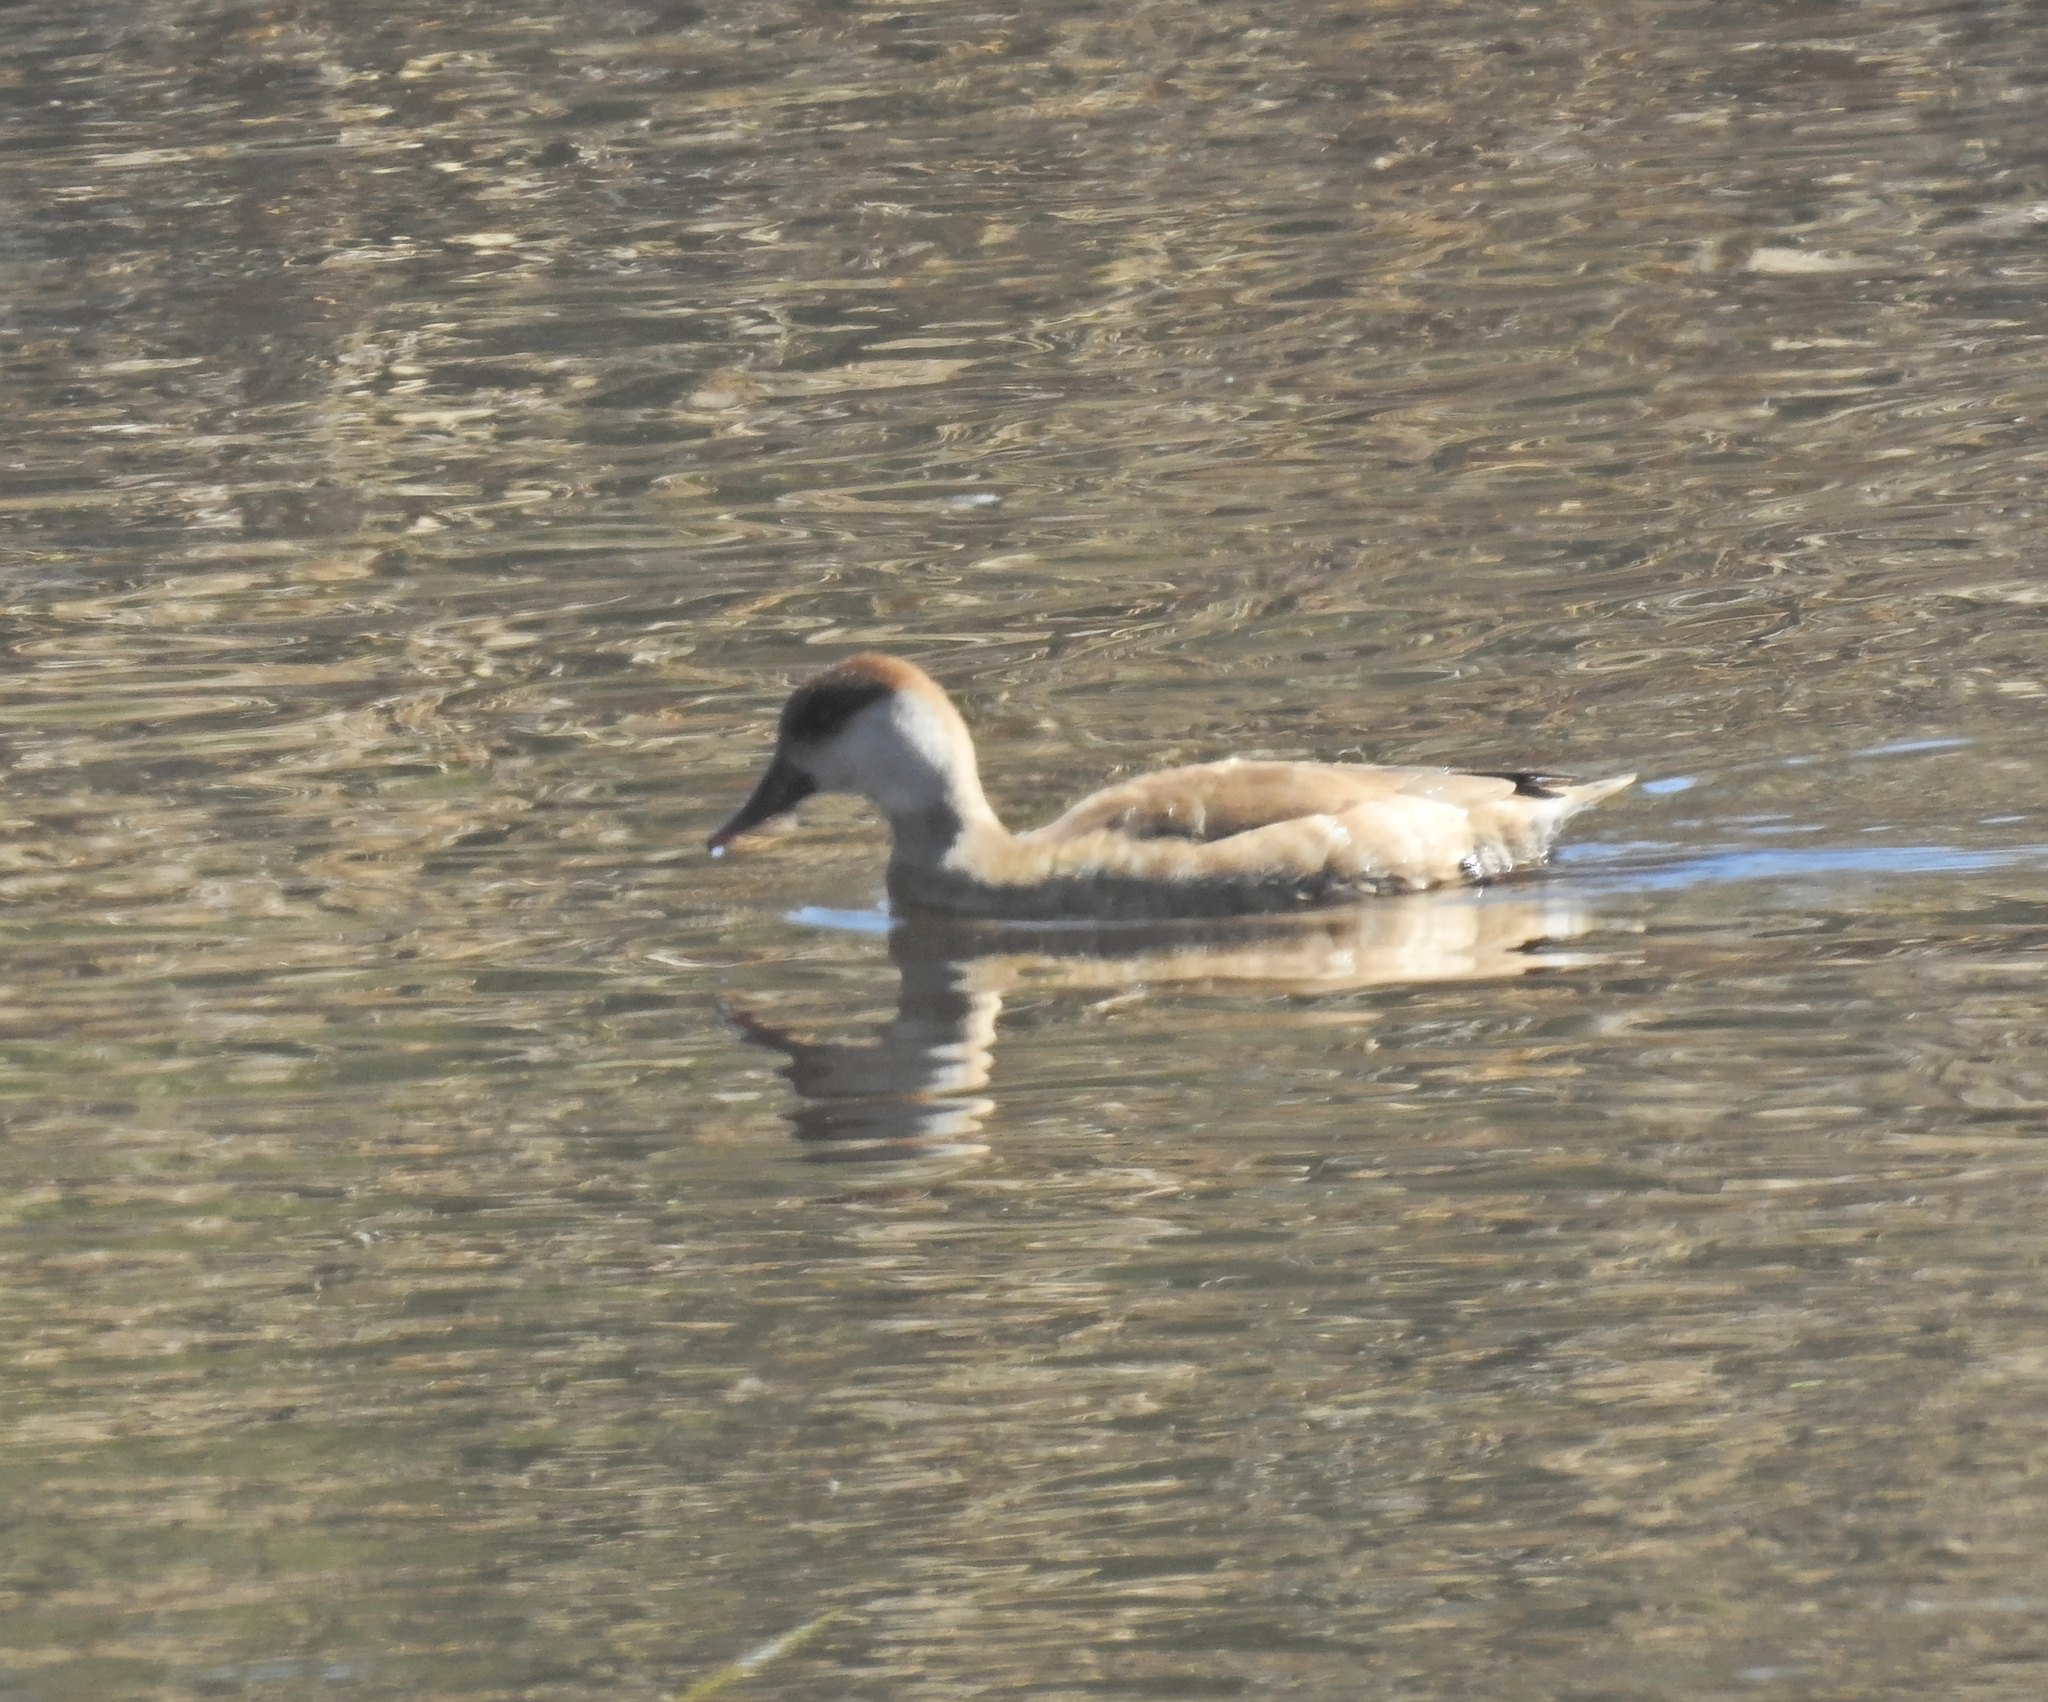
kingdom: Animalia
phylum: Chordata
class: Aves
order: Anseriformes
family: Anatidae
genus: Netta
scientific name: Netta rufina
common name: Red-crested pochard
